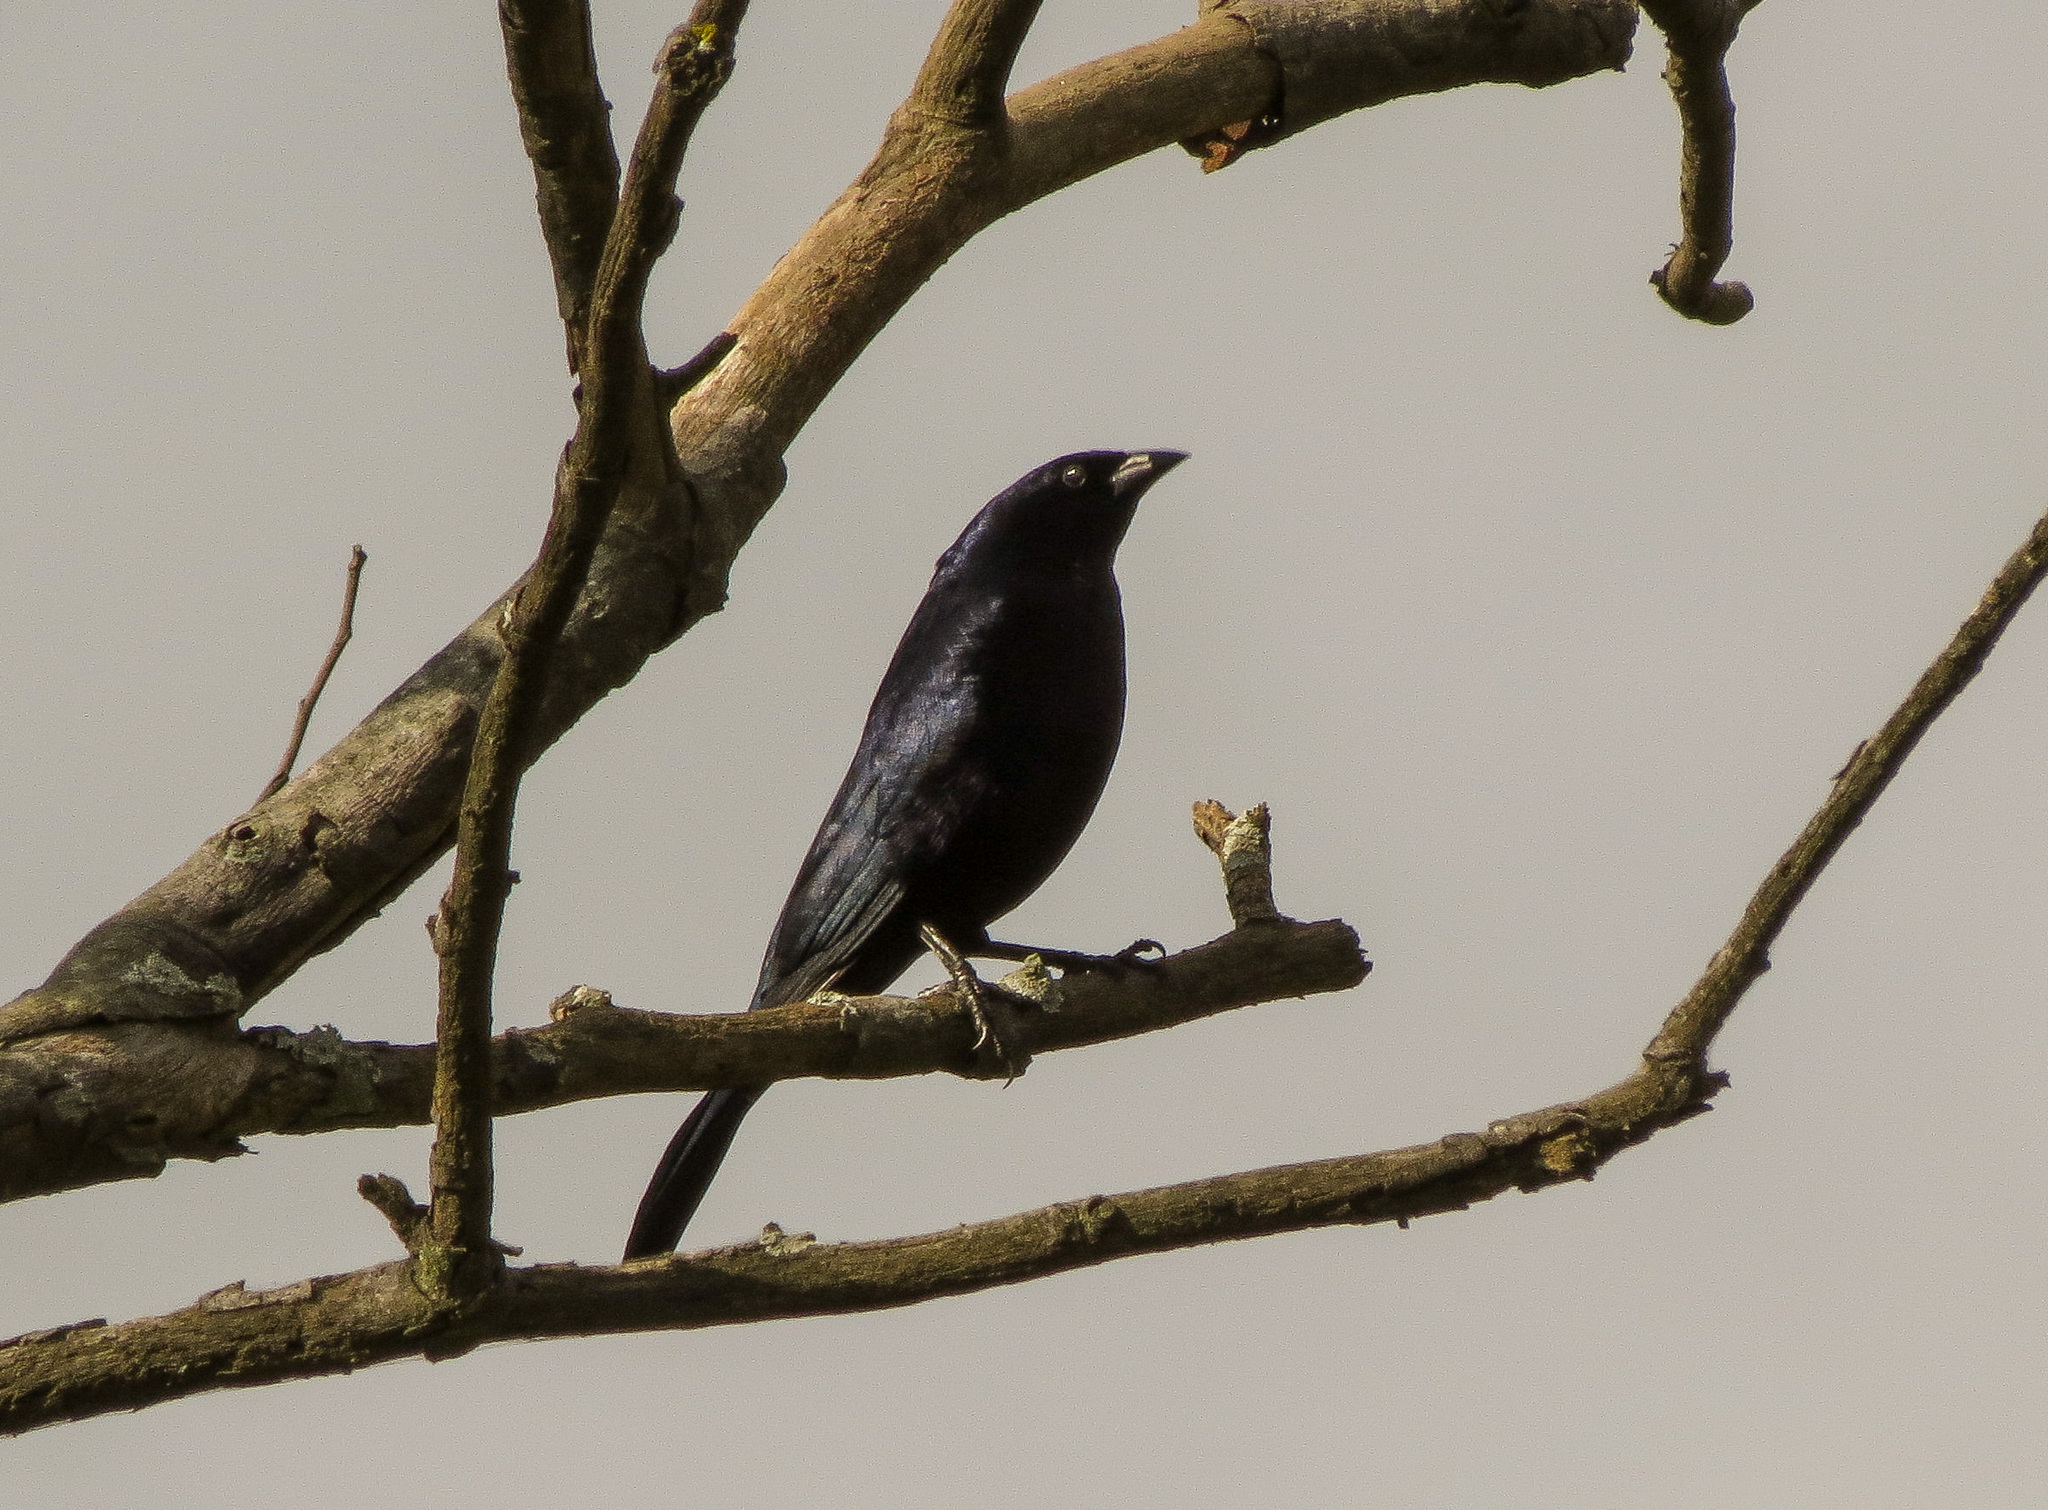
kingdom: Animalia
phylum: Chordata
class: Aves
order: Passeriformes
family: Icteridae
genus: Molothrus
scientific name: Molothrus bonariensis
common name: Shiny cowbird
